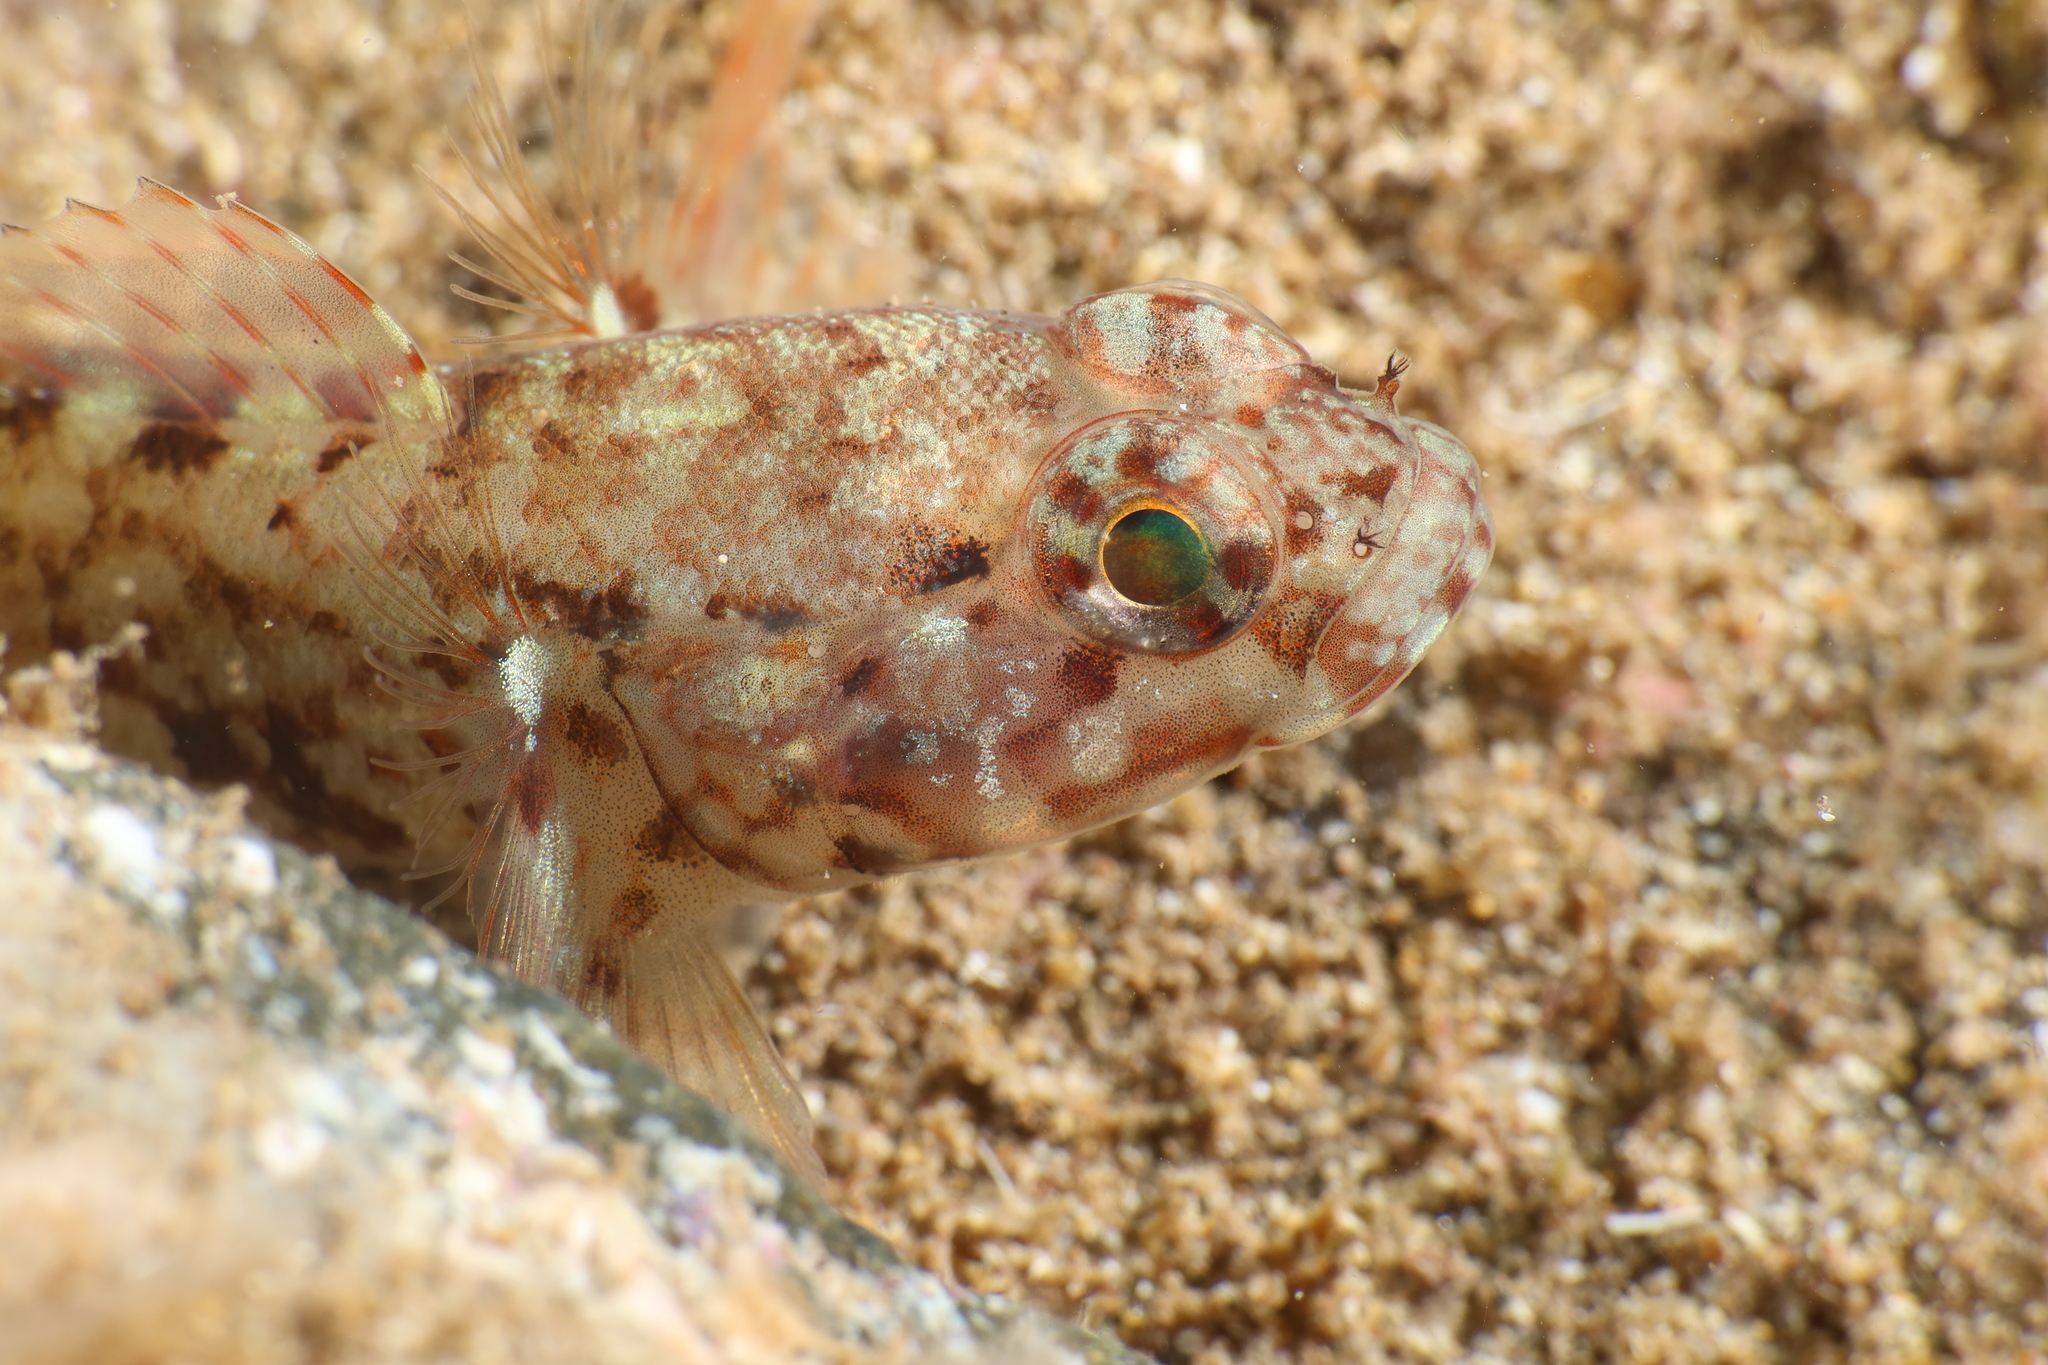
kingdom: Animalia
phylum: Chordata
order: Perciformes
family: Gobiidae
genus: Gobius
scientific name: Gobius paganellus
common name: Rock goby
